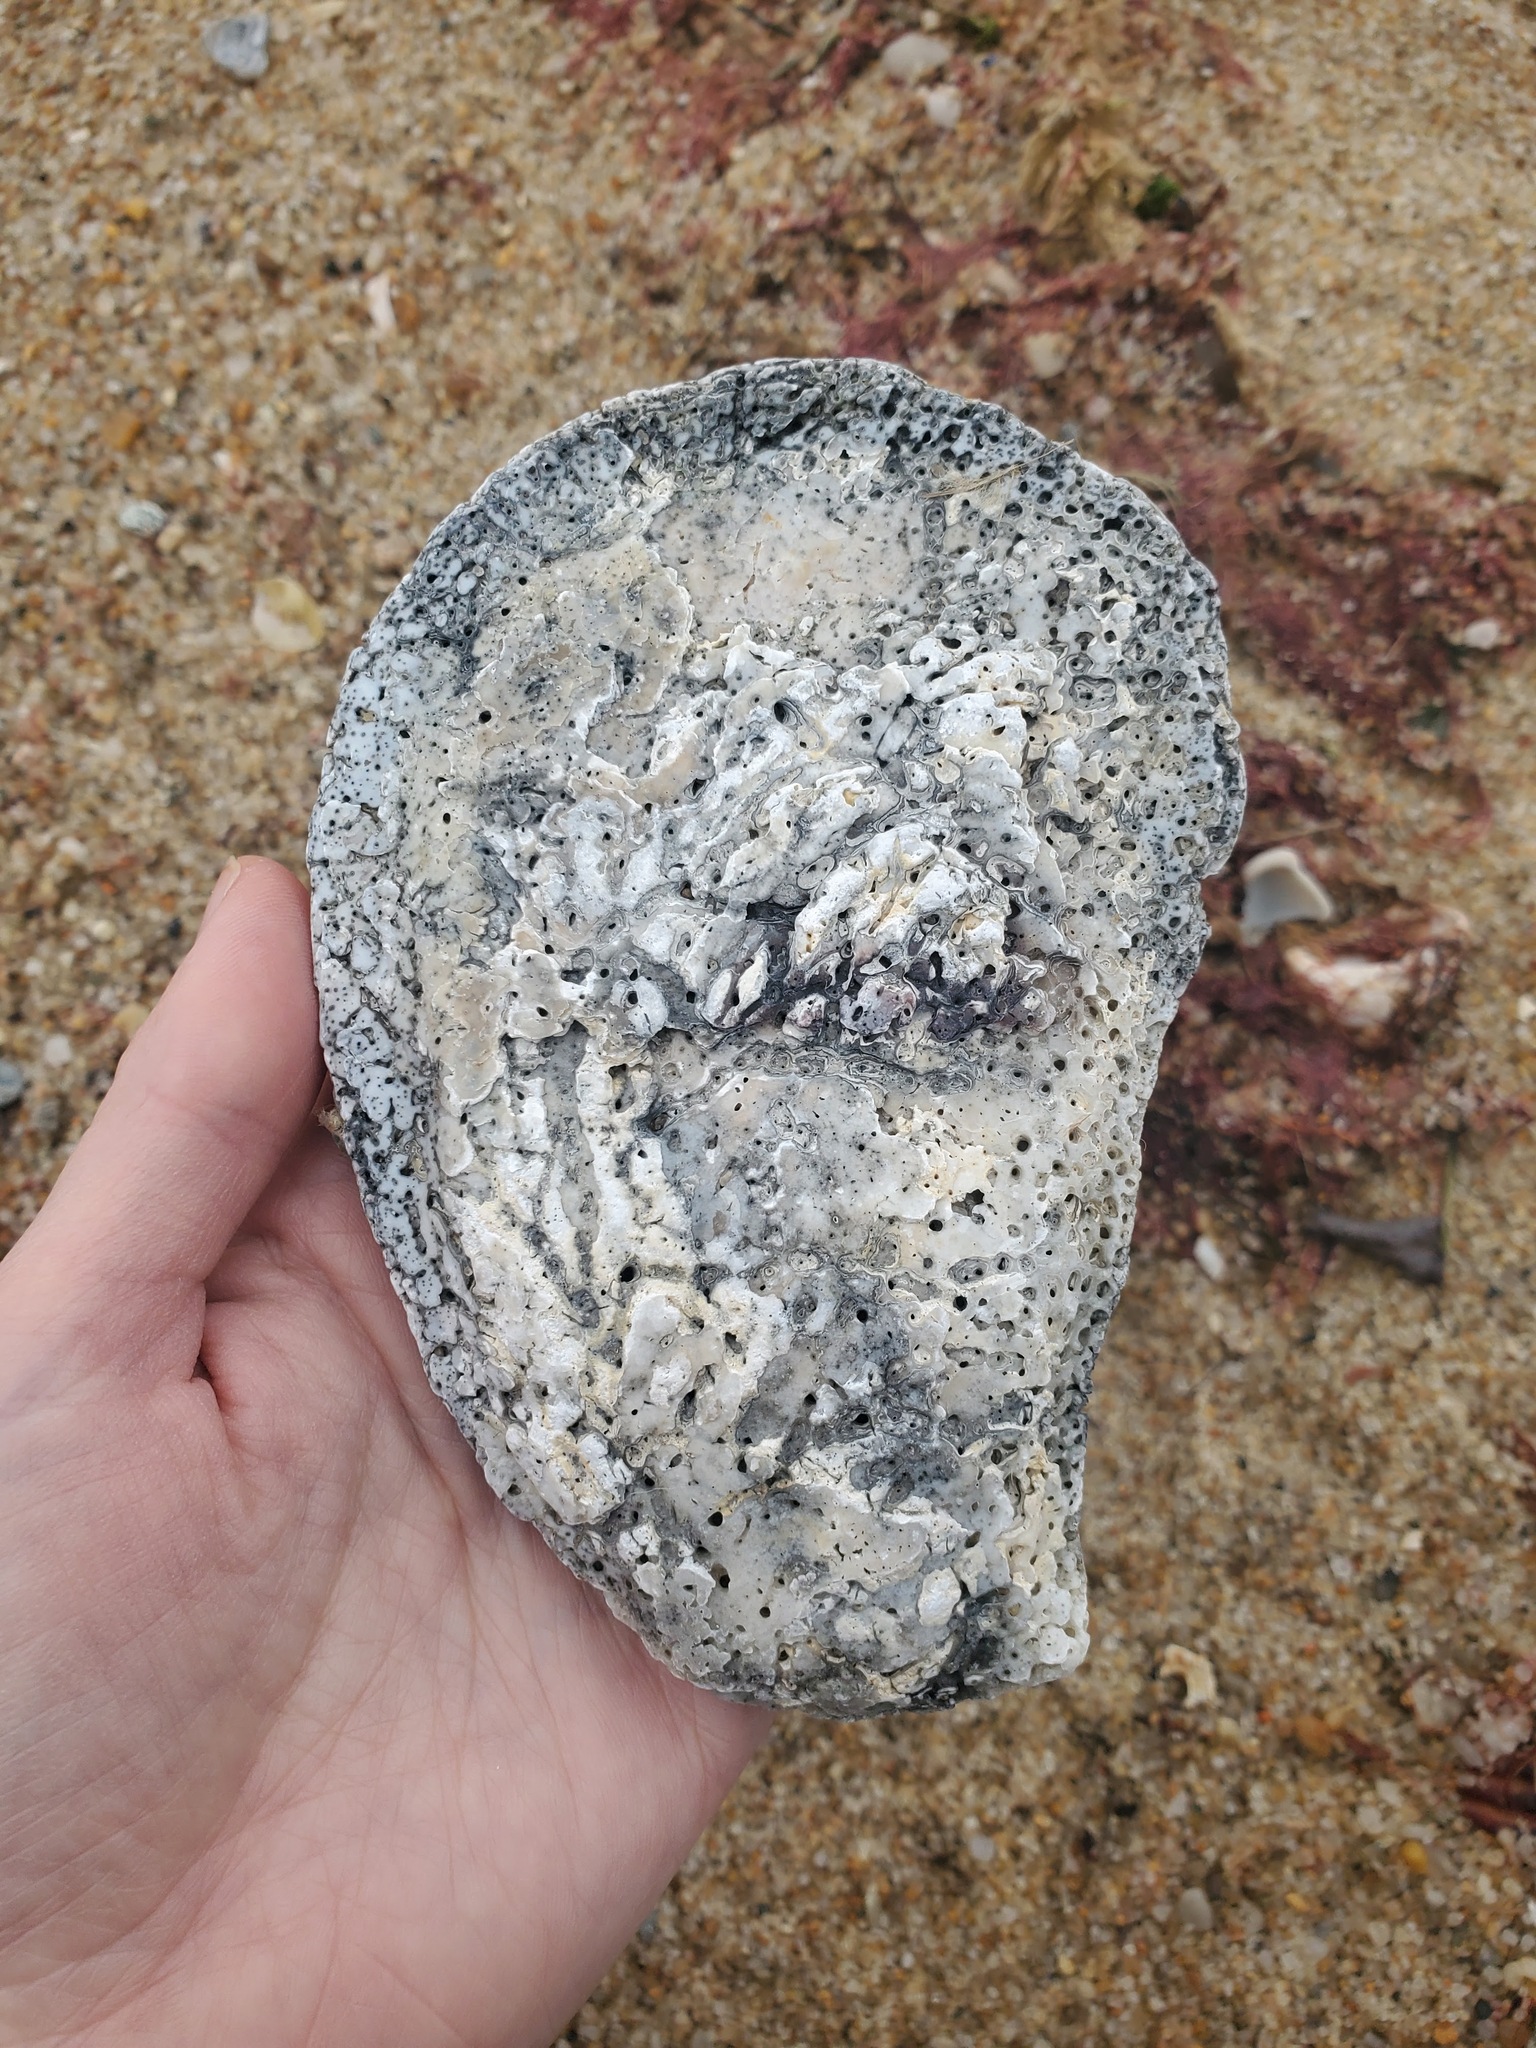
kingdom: Animalia
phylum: Mollusca
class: Bivalvia
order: Ostreida
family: Ostreidae
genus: Crassostrea
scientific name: Crassostrea virginica
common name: American oyster
